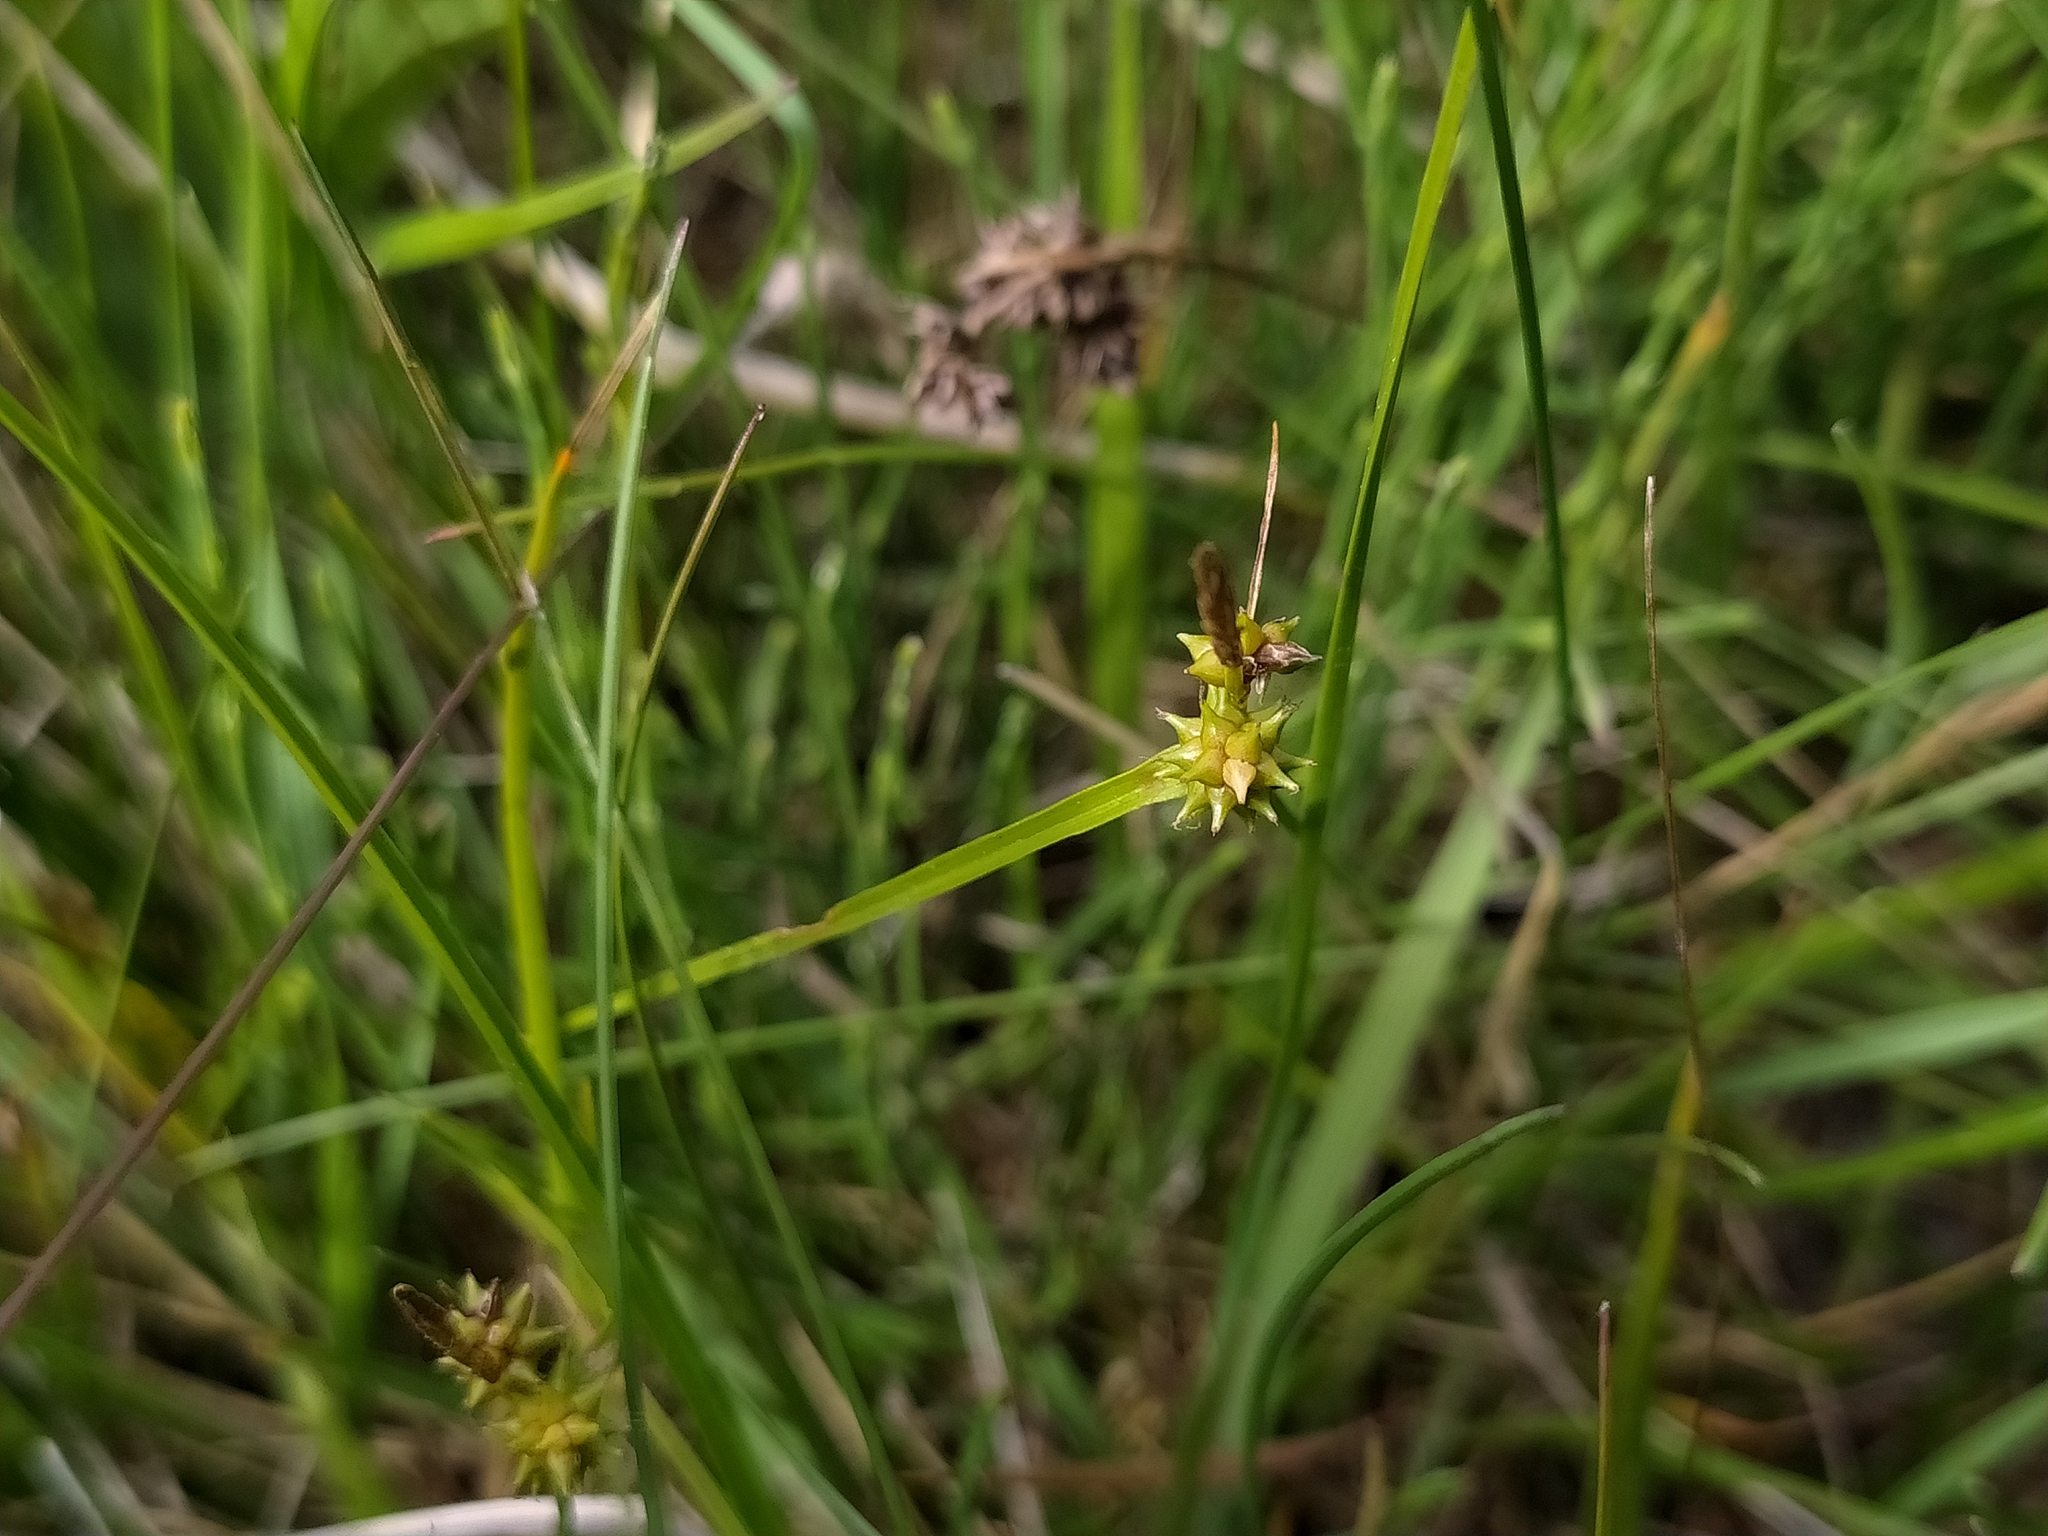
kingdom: Plantae
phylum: Tracheophyta
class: Liliopsida
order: Poales
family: Cyperaceae
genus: Carex
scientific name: Carex
